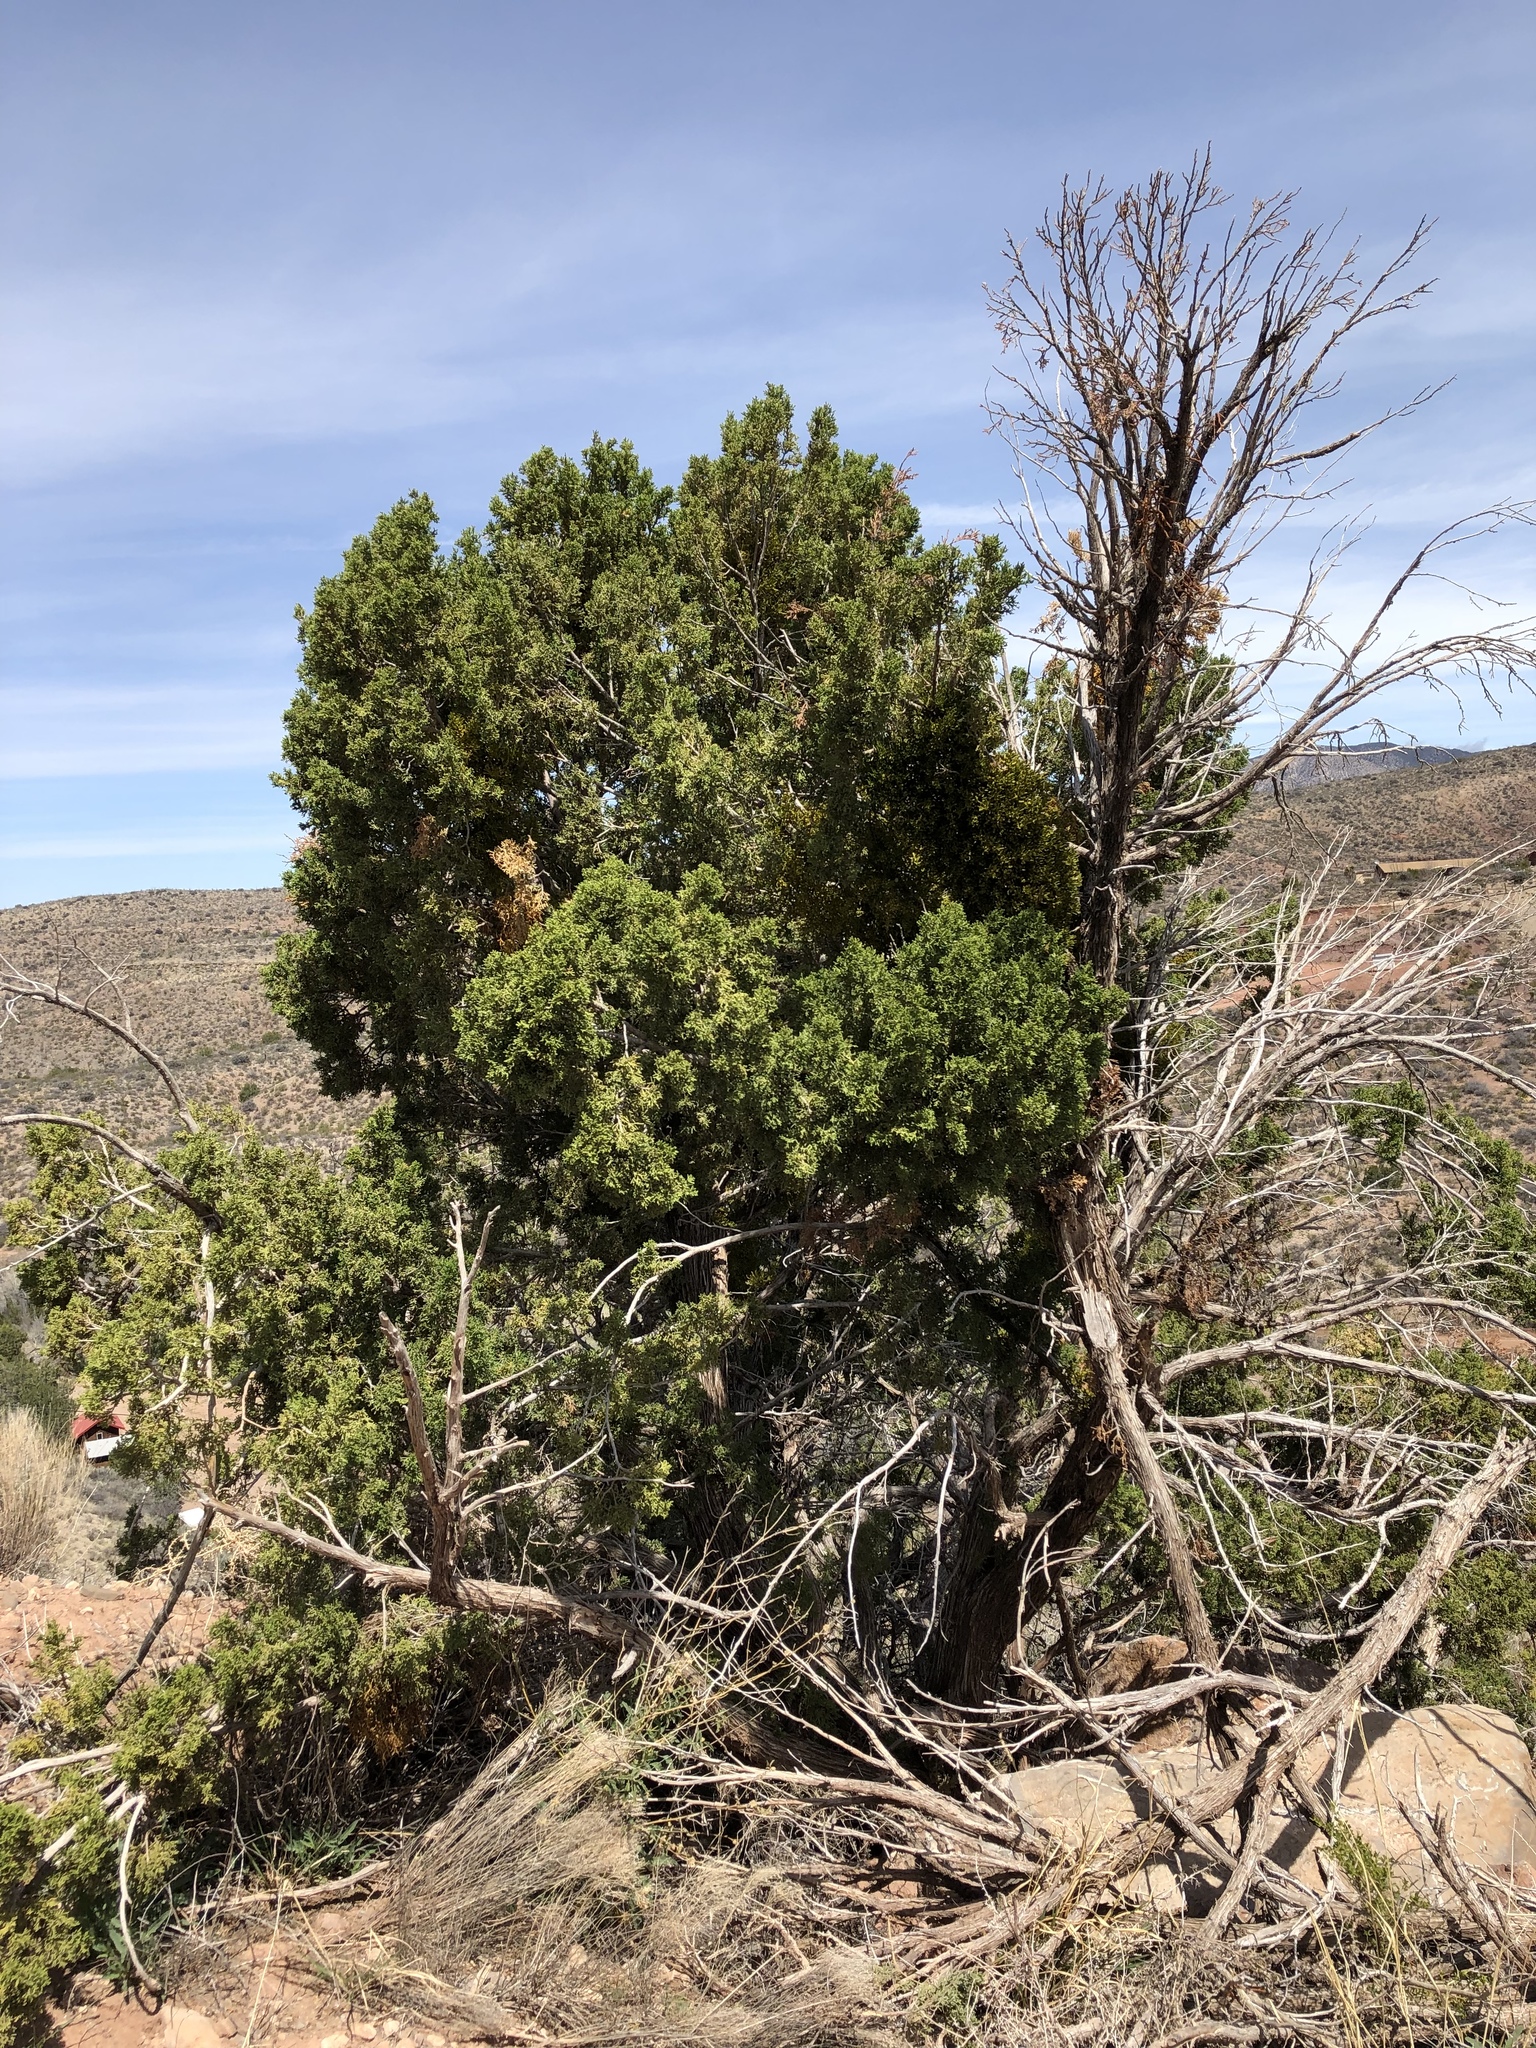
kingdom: Plantae
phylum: Tracheophyta
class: Pinopsida
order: Pinales
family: Cupressaceae
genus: Juniperus
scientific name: Juniperus monosperma
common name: One-seed juniper
